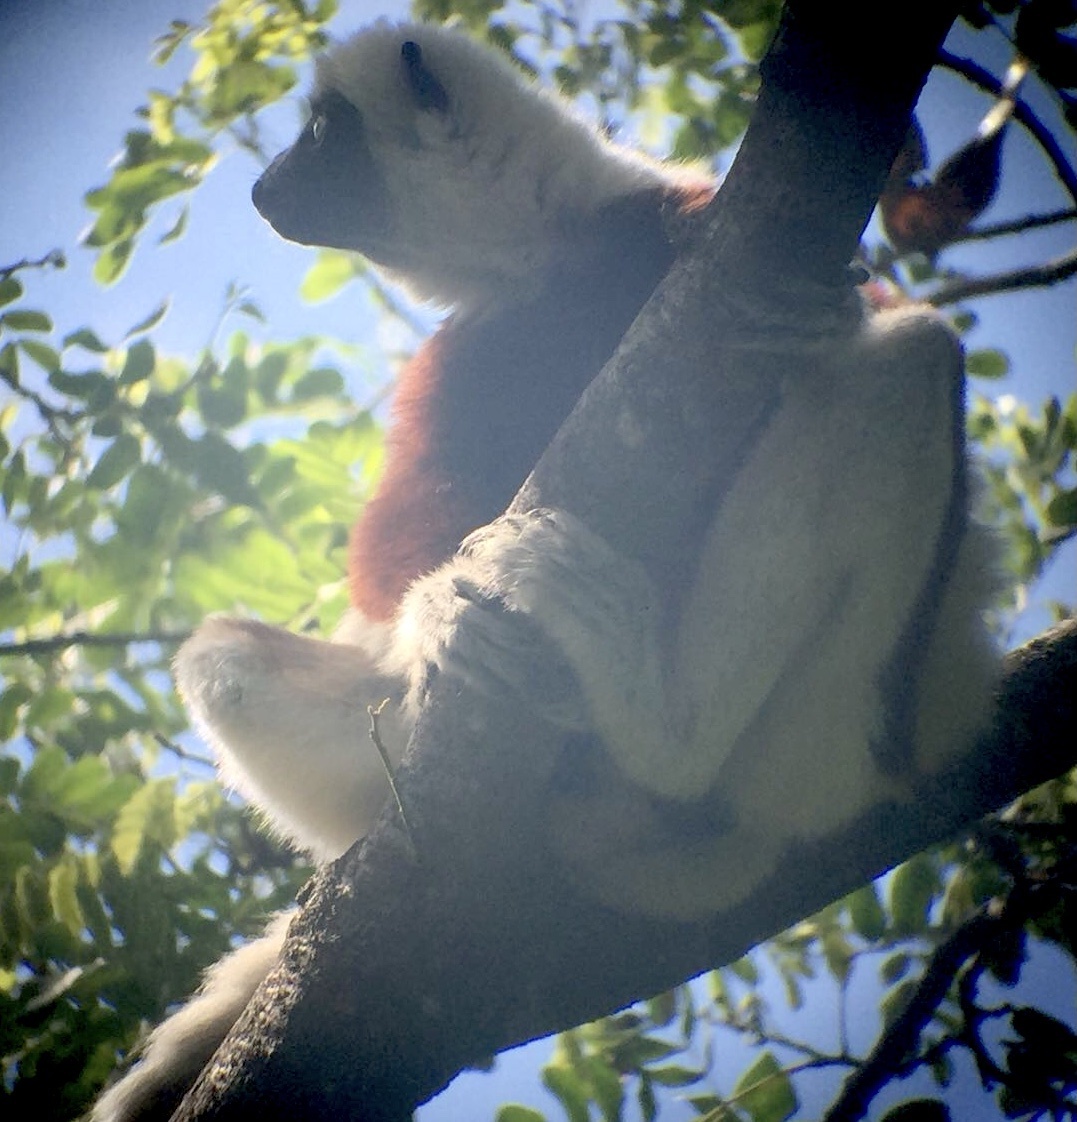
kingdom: Animalia
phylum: Chordata
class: Mammalia
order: Primates
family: Indriidae
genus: Propithecus
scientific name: Propithecus coquereli
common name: Coquerel's sifaka
